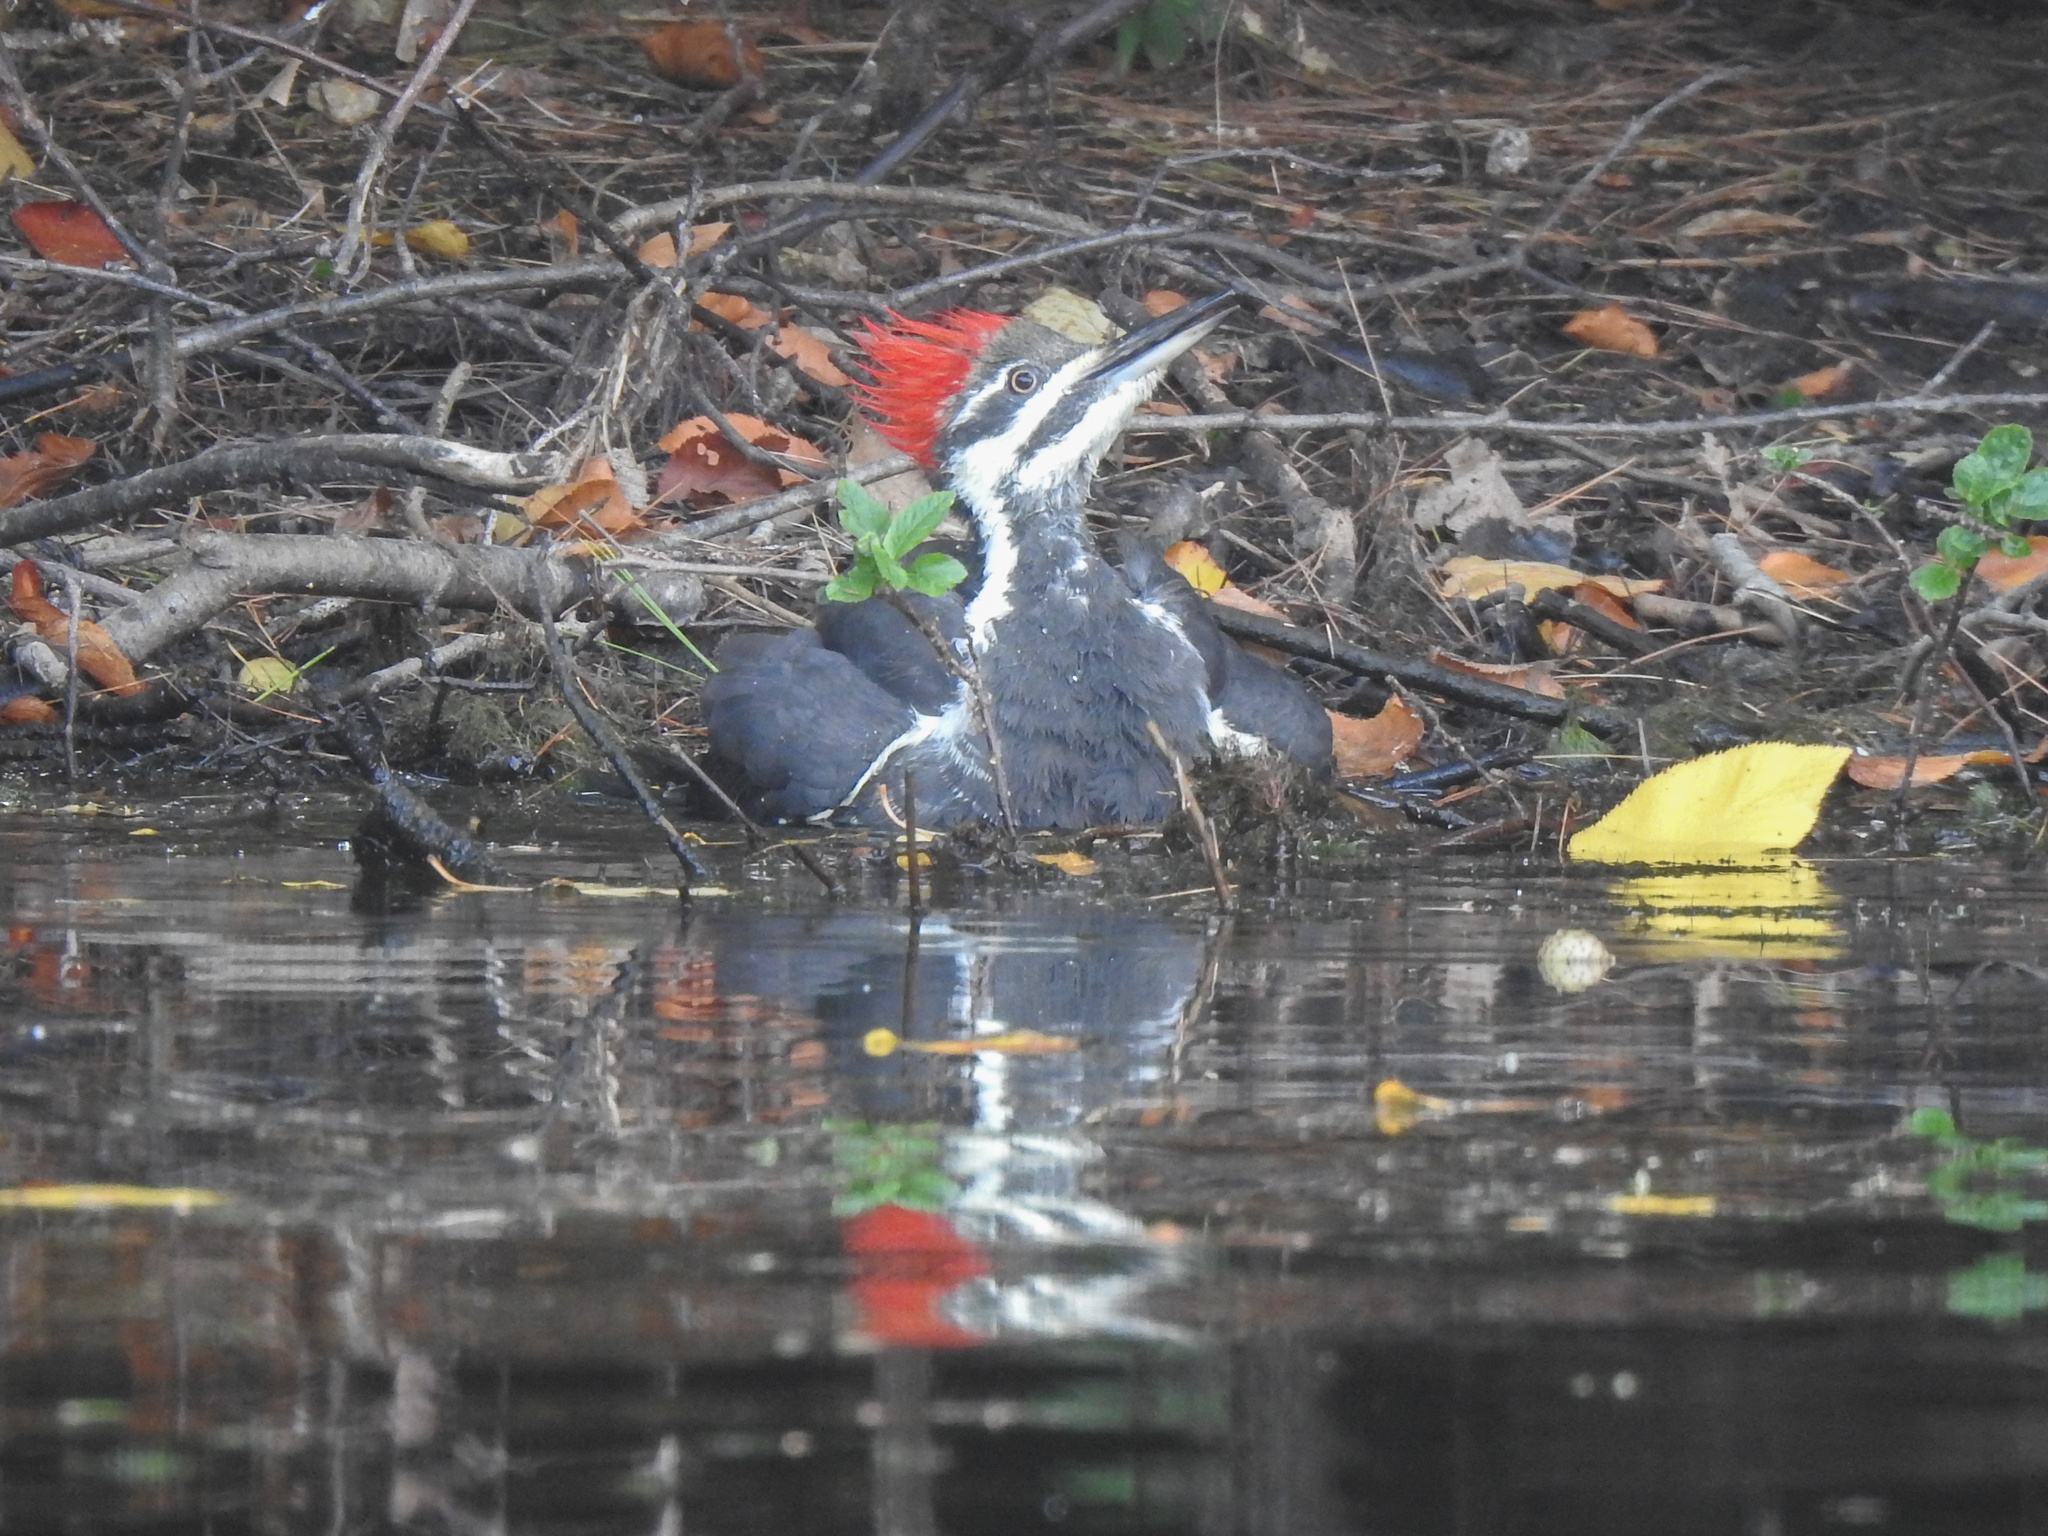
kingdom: Animalia
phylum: Chordata
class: Aves
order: Piciformes
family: Picidae
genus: Dryocopus
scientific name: Dryocopus pileatus
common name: Pileated woodpecker
